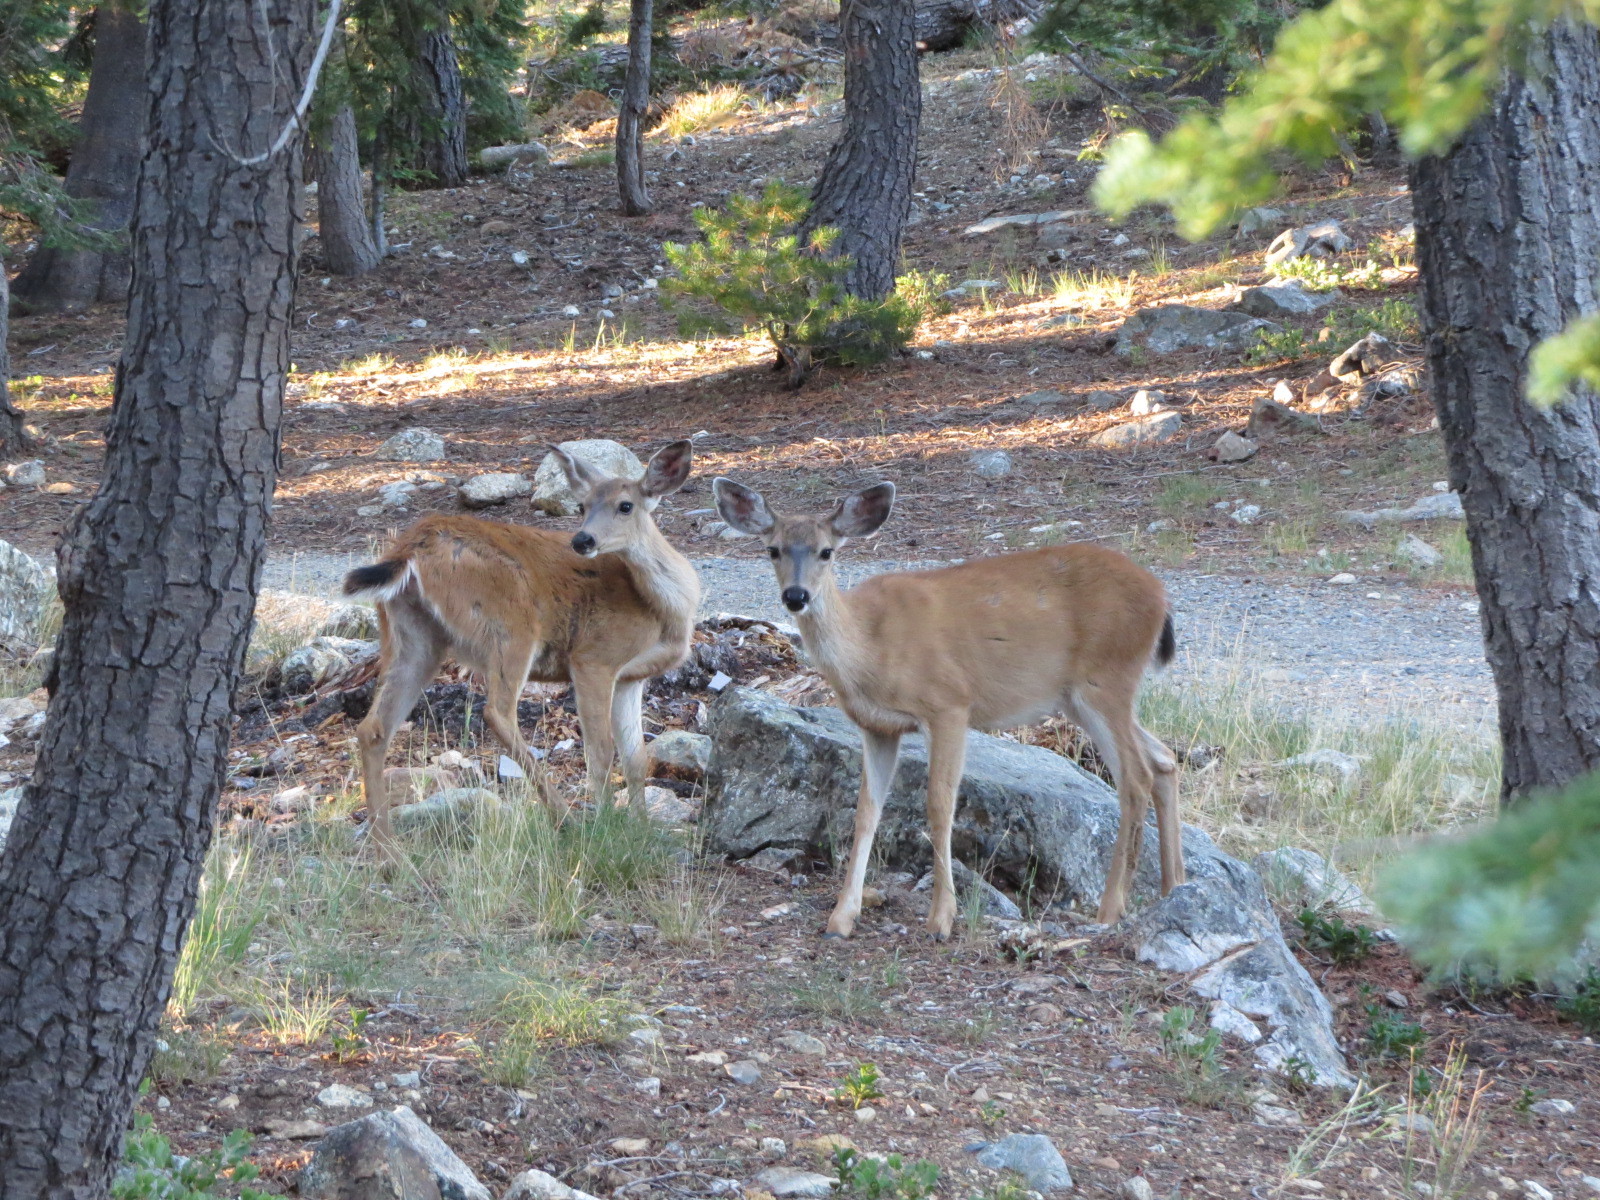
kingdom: Animalia
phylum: Chordata
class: Mammalia
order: Artiodactyla
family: Cervidae
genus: Odocoileus
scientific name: Odocoileus hemionus
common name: Mule deer
